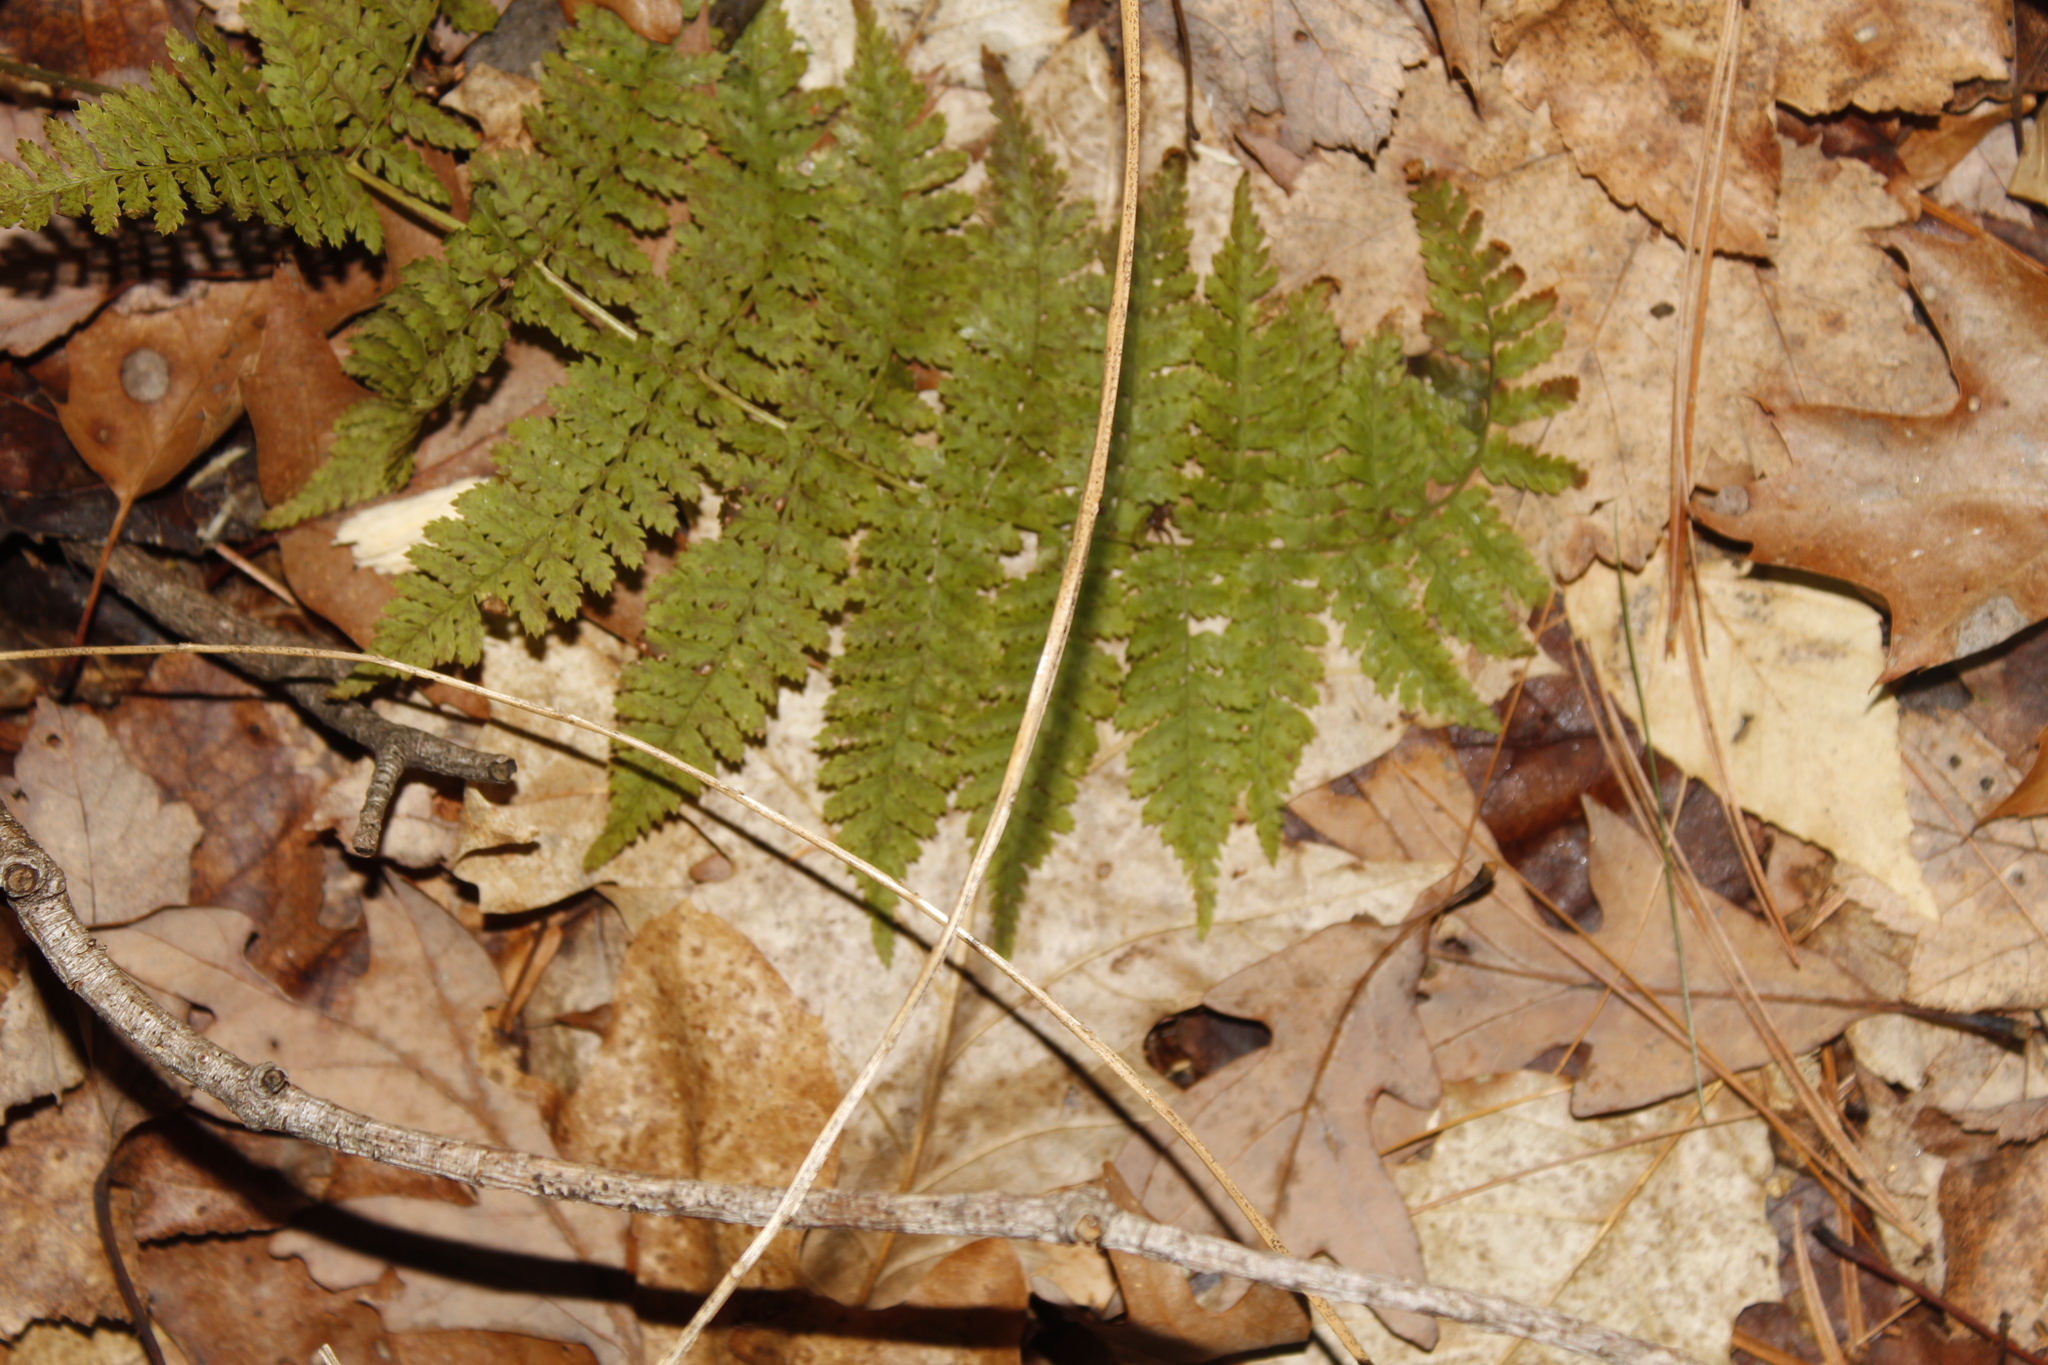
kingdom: Plantae
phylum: Tracheophyta
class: Polypodiopsida
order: Polypodiales
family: Dryopteridaceae
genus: Dryopteris
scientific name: Dryopteris intermedia
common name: Evergreen wood fern
